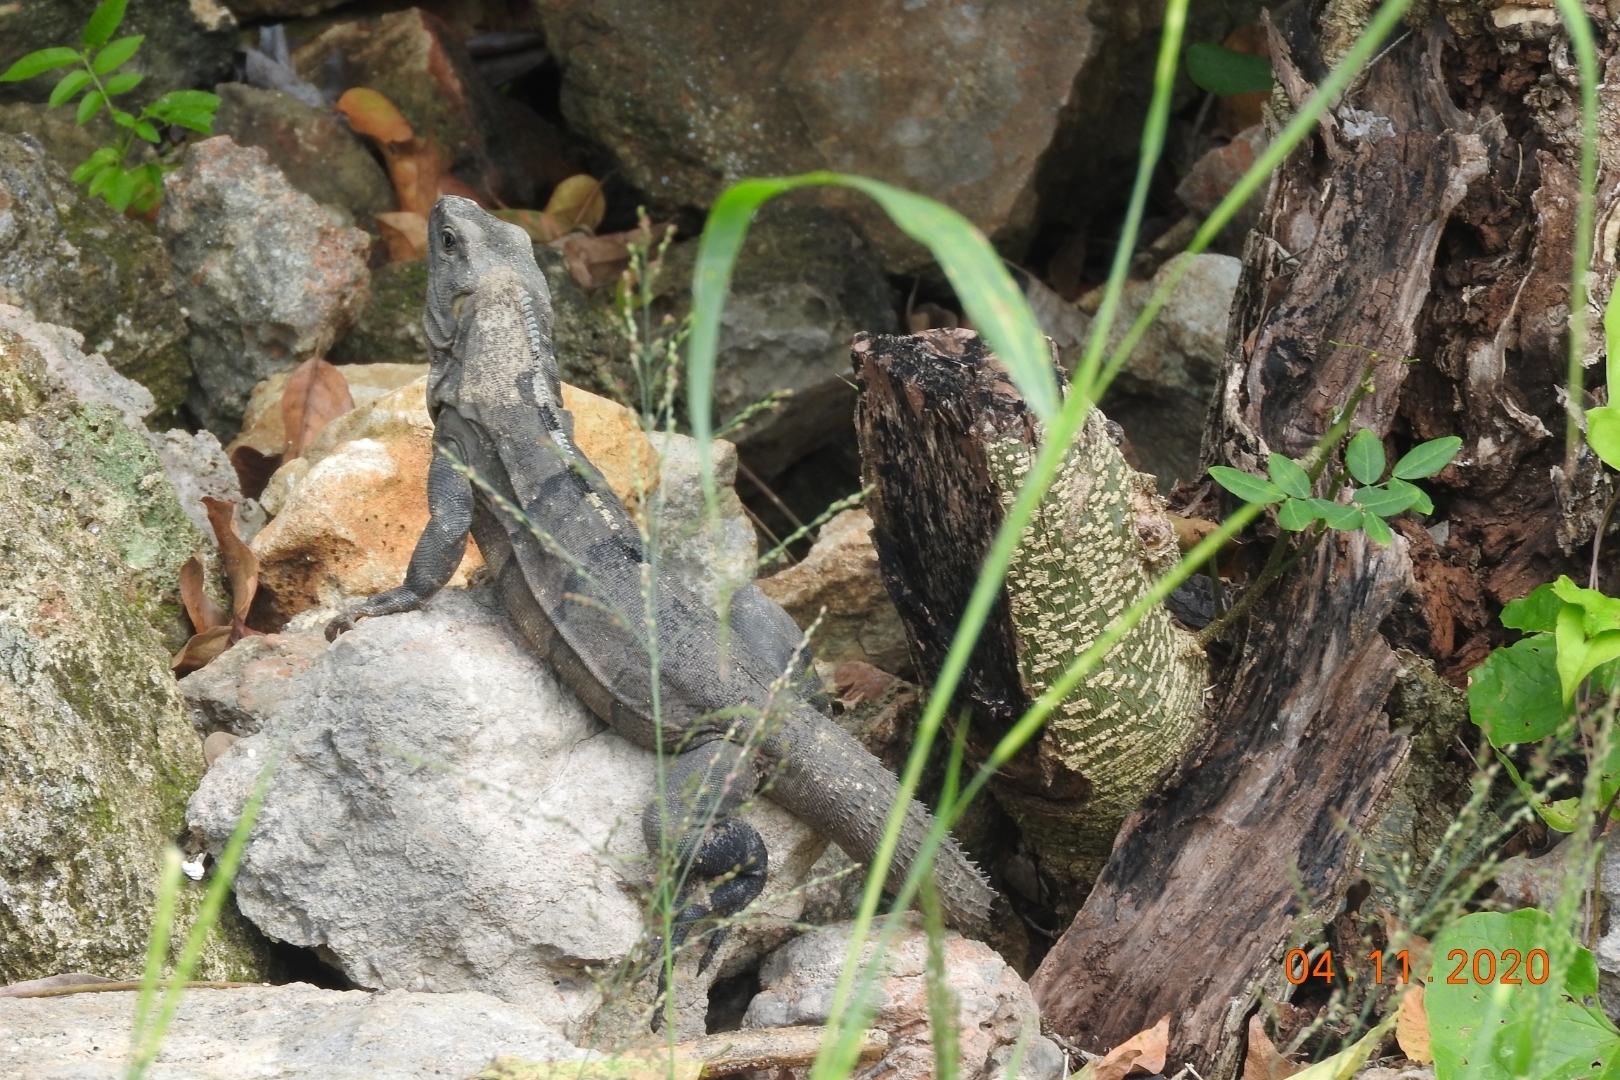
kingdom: Animalia
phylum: Chordata
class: Squamata
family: Iguanidae
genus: Ctenosaura
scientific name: Ctenosaura similis
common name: Black spiny-tailed iguana
